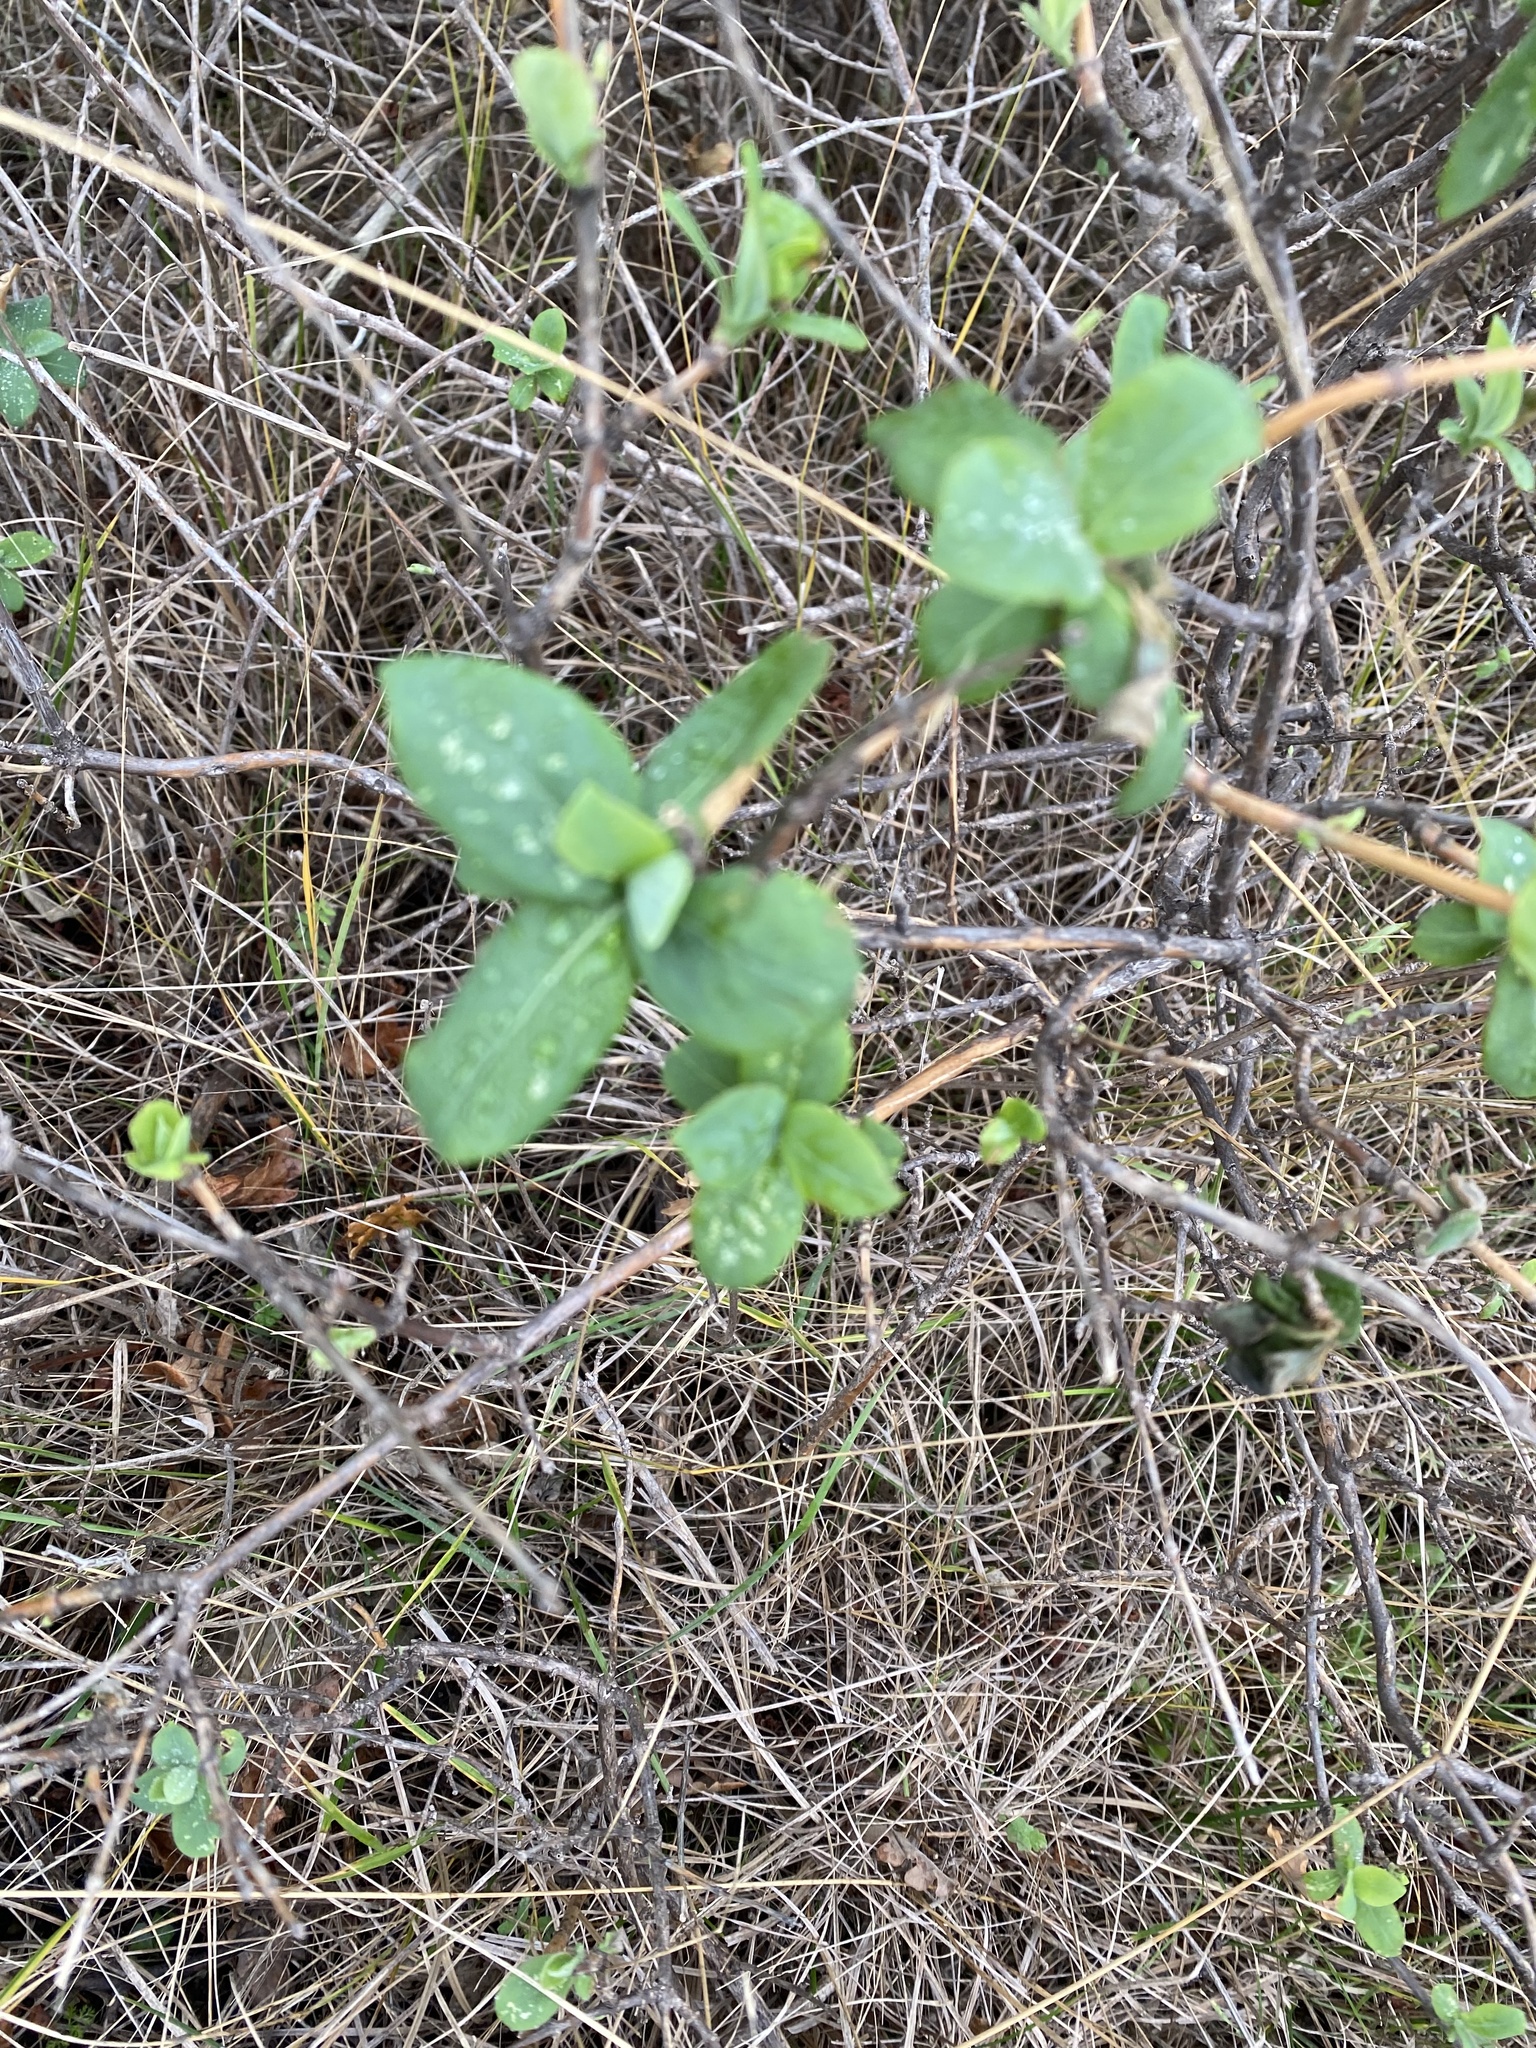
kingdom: Plantae
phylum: Tracheophyta
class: Magnoliopsida
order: Dipsacales
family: Caprifoliaceae
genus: Lonicera
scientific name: Lonicera caprifolium
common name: Perfoliate honeysuckle
